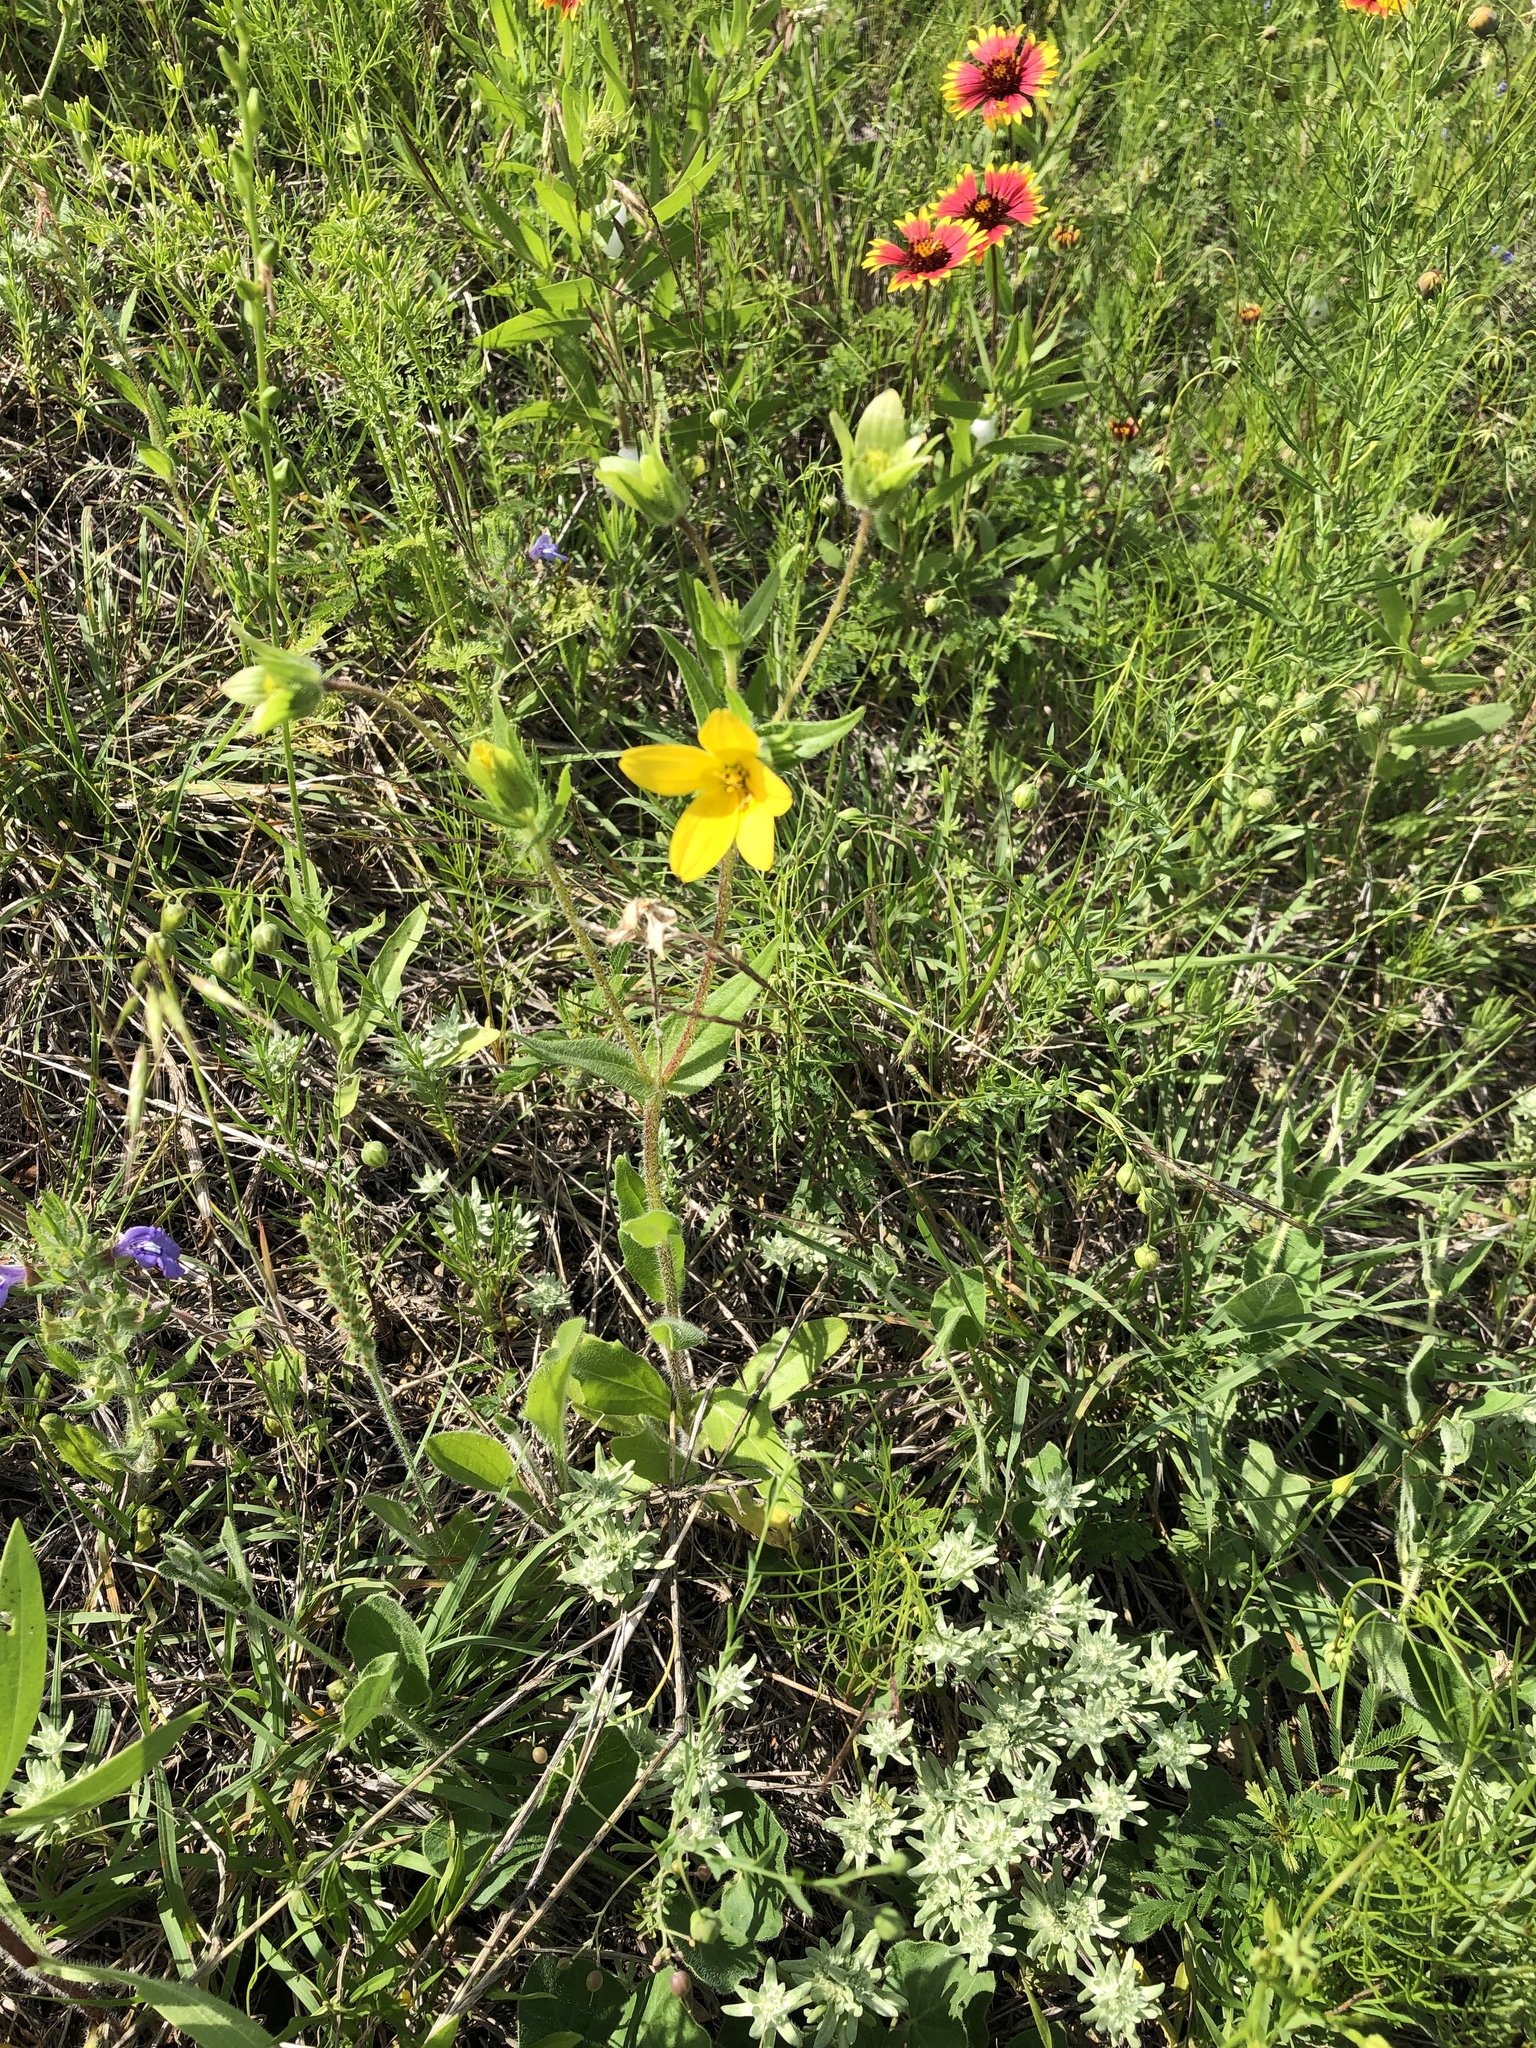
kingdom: Plantae
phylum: Tracheophyta
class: Magnoliopsida
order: Asterales
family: Asteraceae
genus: Lindheimera
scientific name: Lindheimera texana
